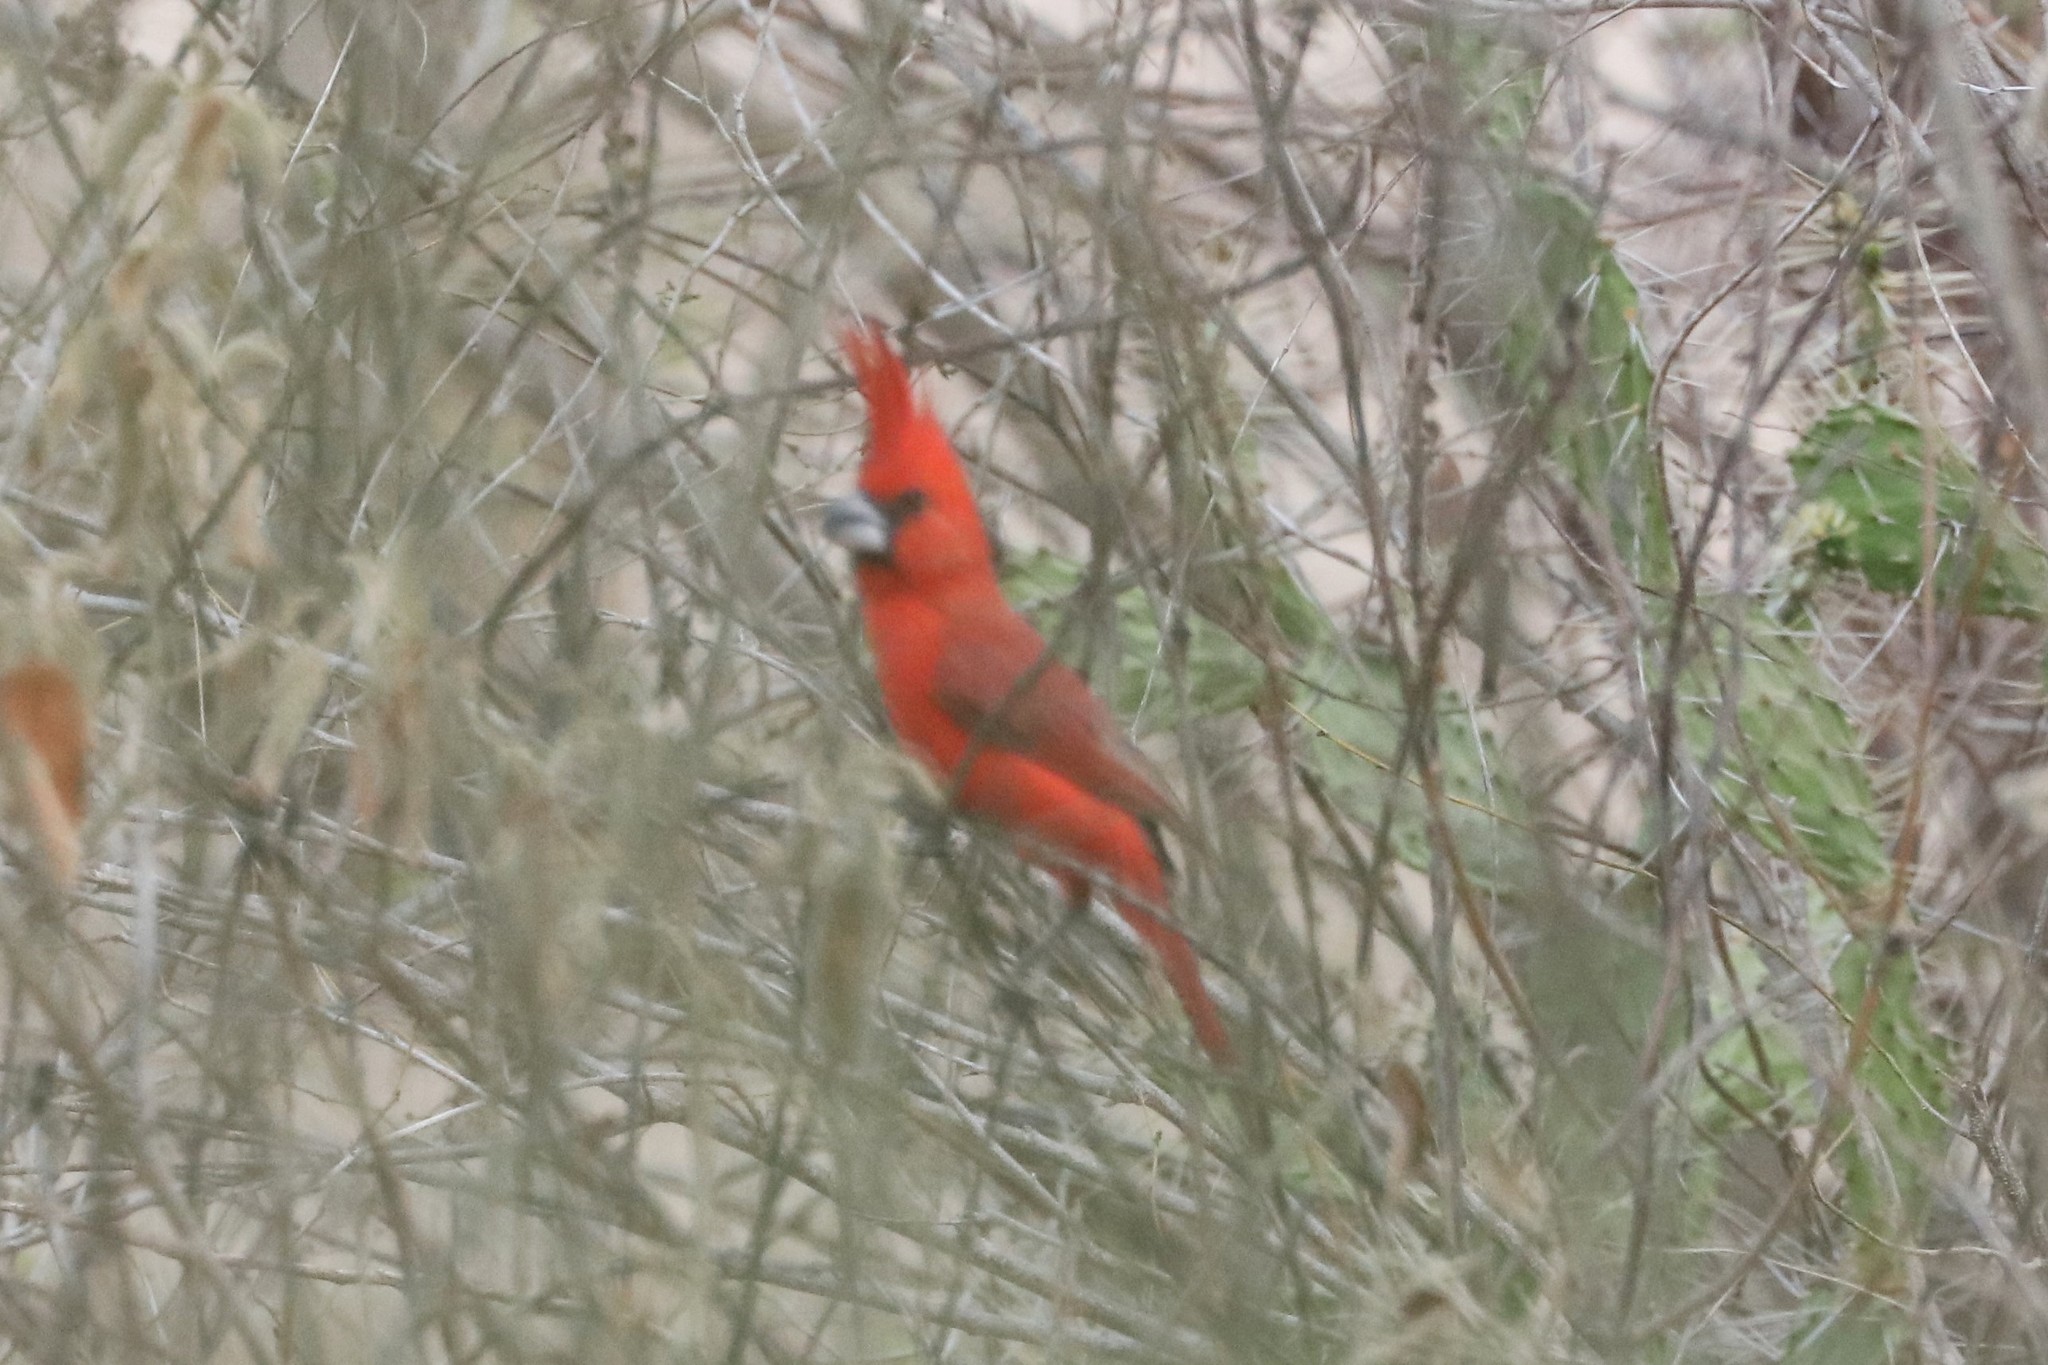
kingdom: Animalia
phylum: Chordata
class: Aves
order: Passeriformes
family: Cardinalidae
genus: Cardinalis
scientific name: Cardinalis phoeniceus
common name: Vermilion cardinal
